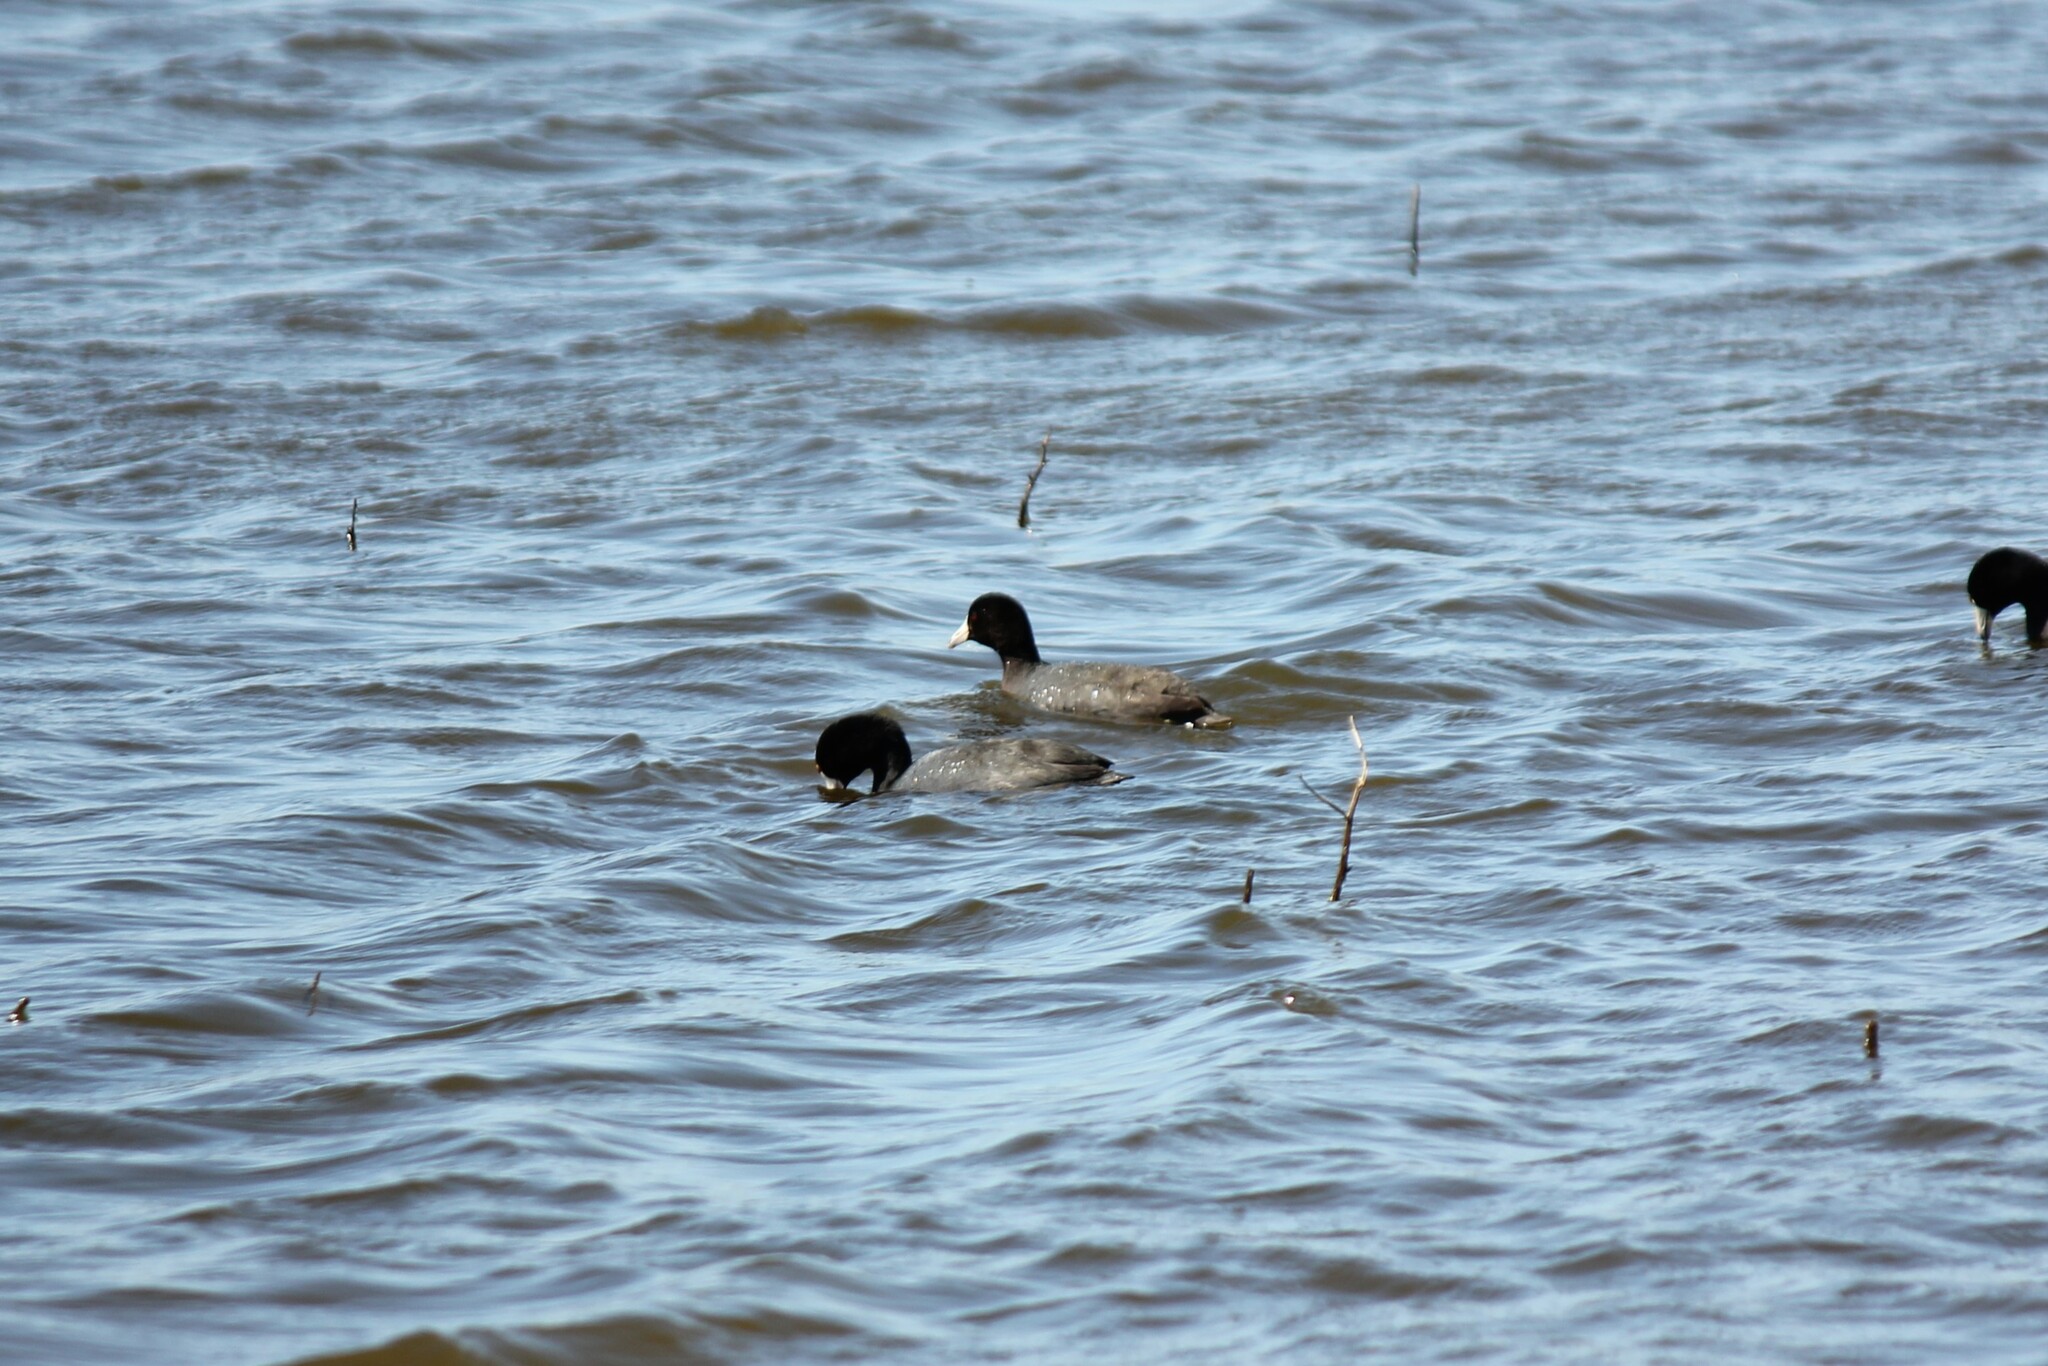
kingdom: Animalia
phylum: Chordata
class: Aves
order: Gruiformes
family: Rallidae
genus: Fulica
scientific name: Fulica americana
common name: American coot
